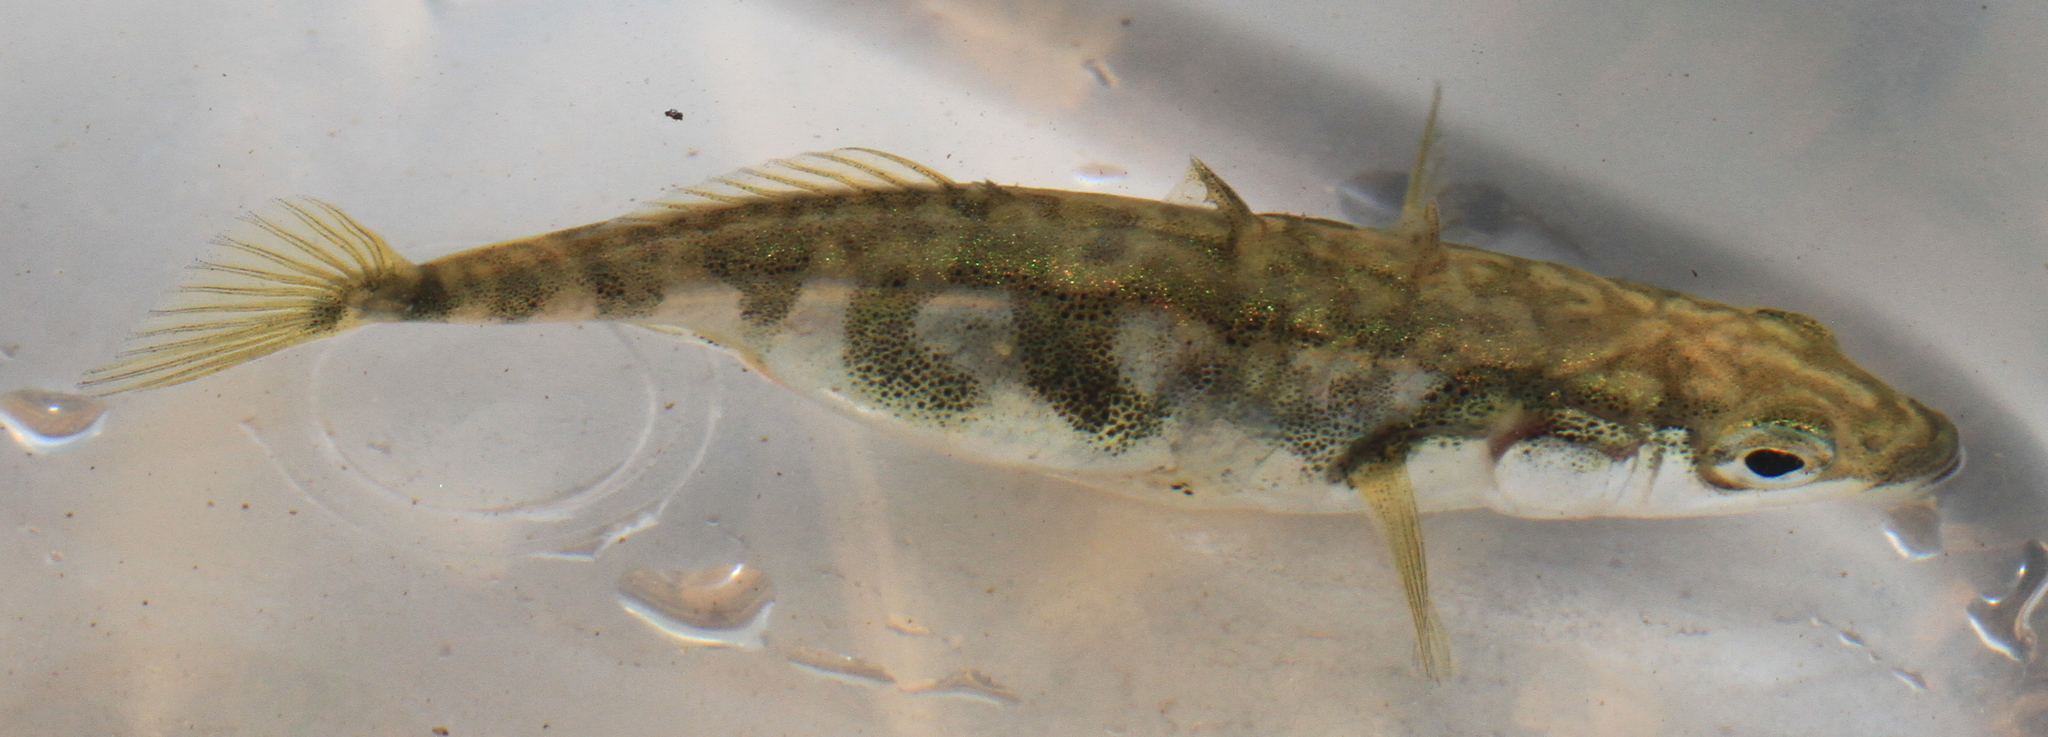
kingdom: Animalia
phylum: Chordata
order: Gasterosteiformes
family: Gasterosteidae
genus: Gasterosteus
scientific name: Gasterosteus aculeatus
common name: Three-spined stickleback
